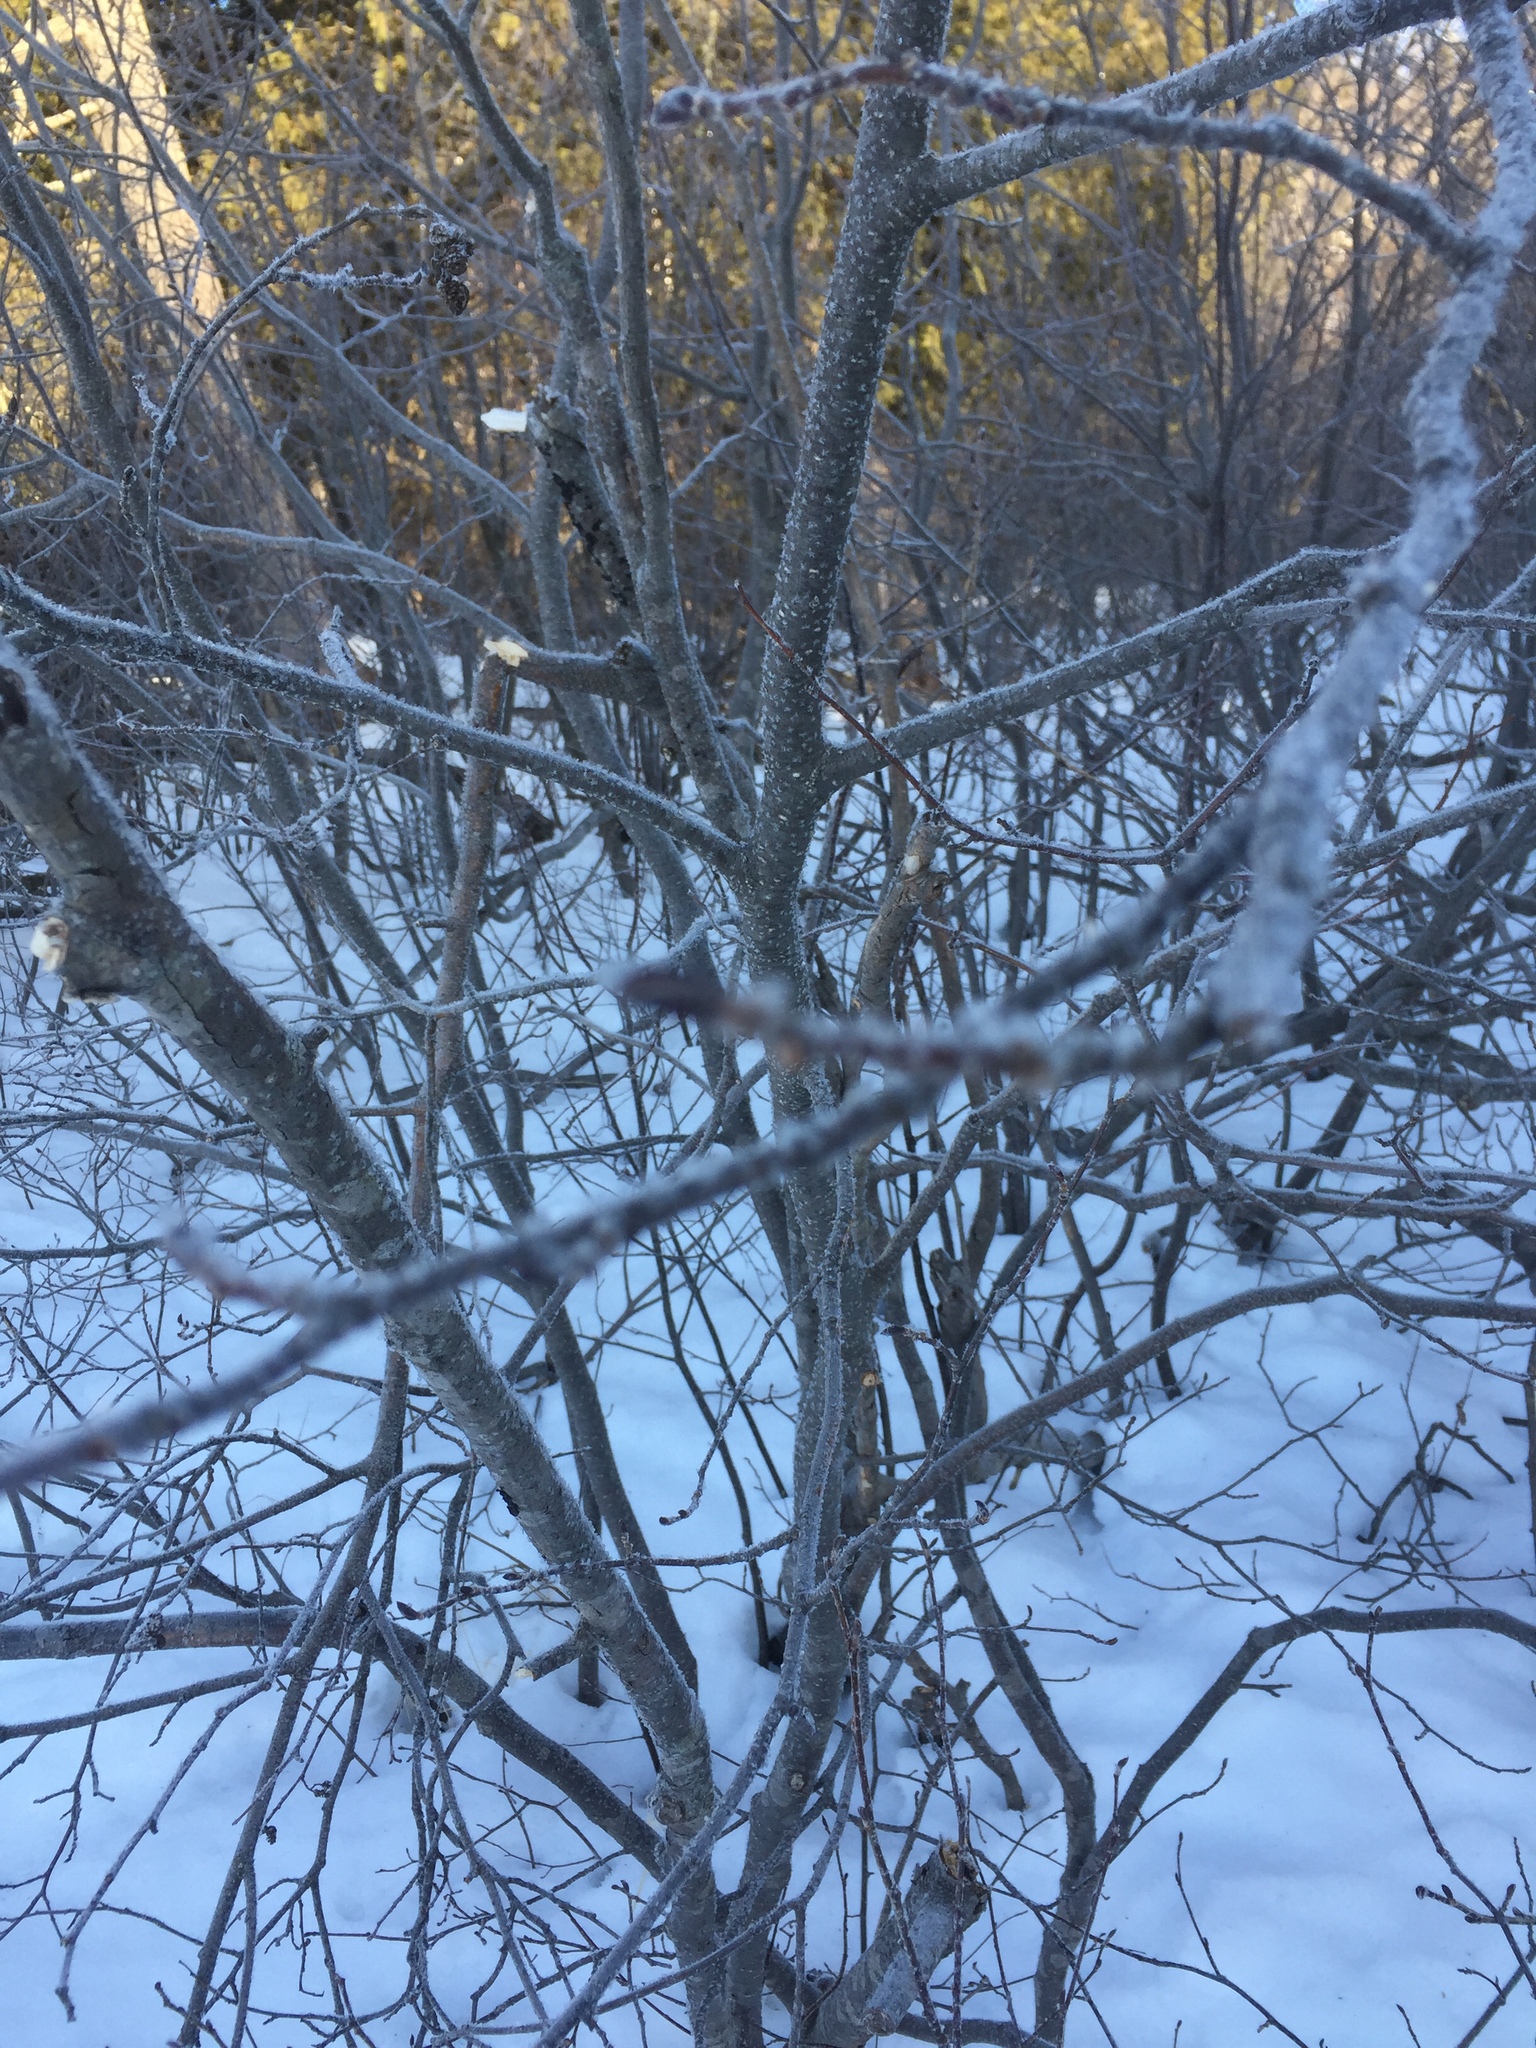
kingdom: Plantae
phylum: Tracheophyta
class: Magnoliopsida
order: Fagales
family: Betulaceae
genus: Alnus
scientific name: Alnus incana
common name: Grey alder
